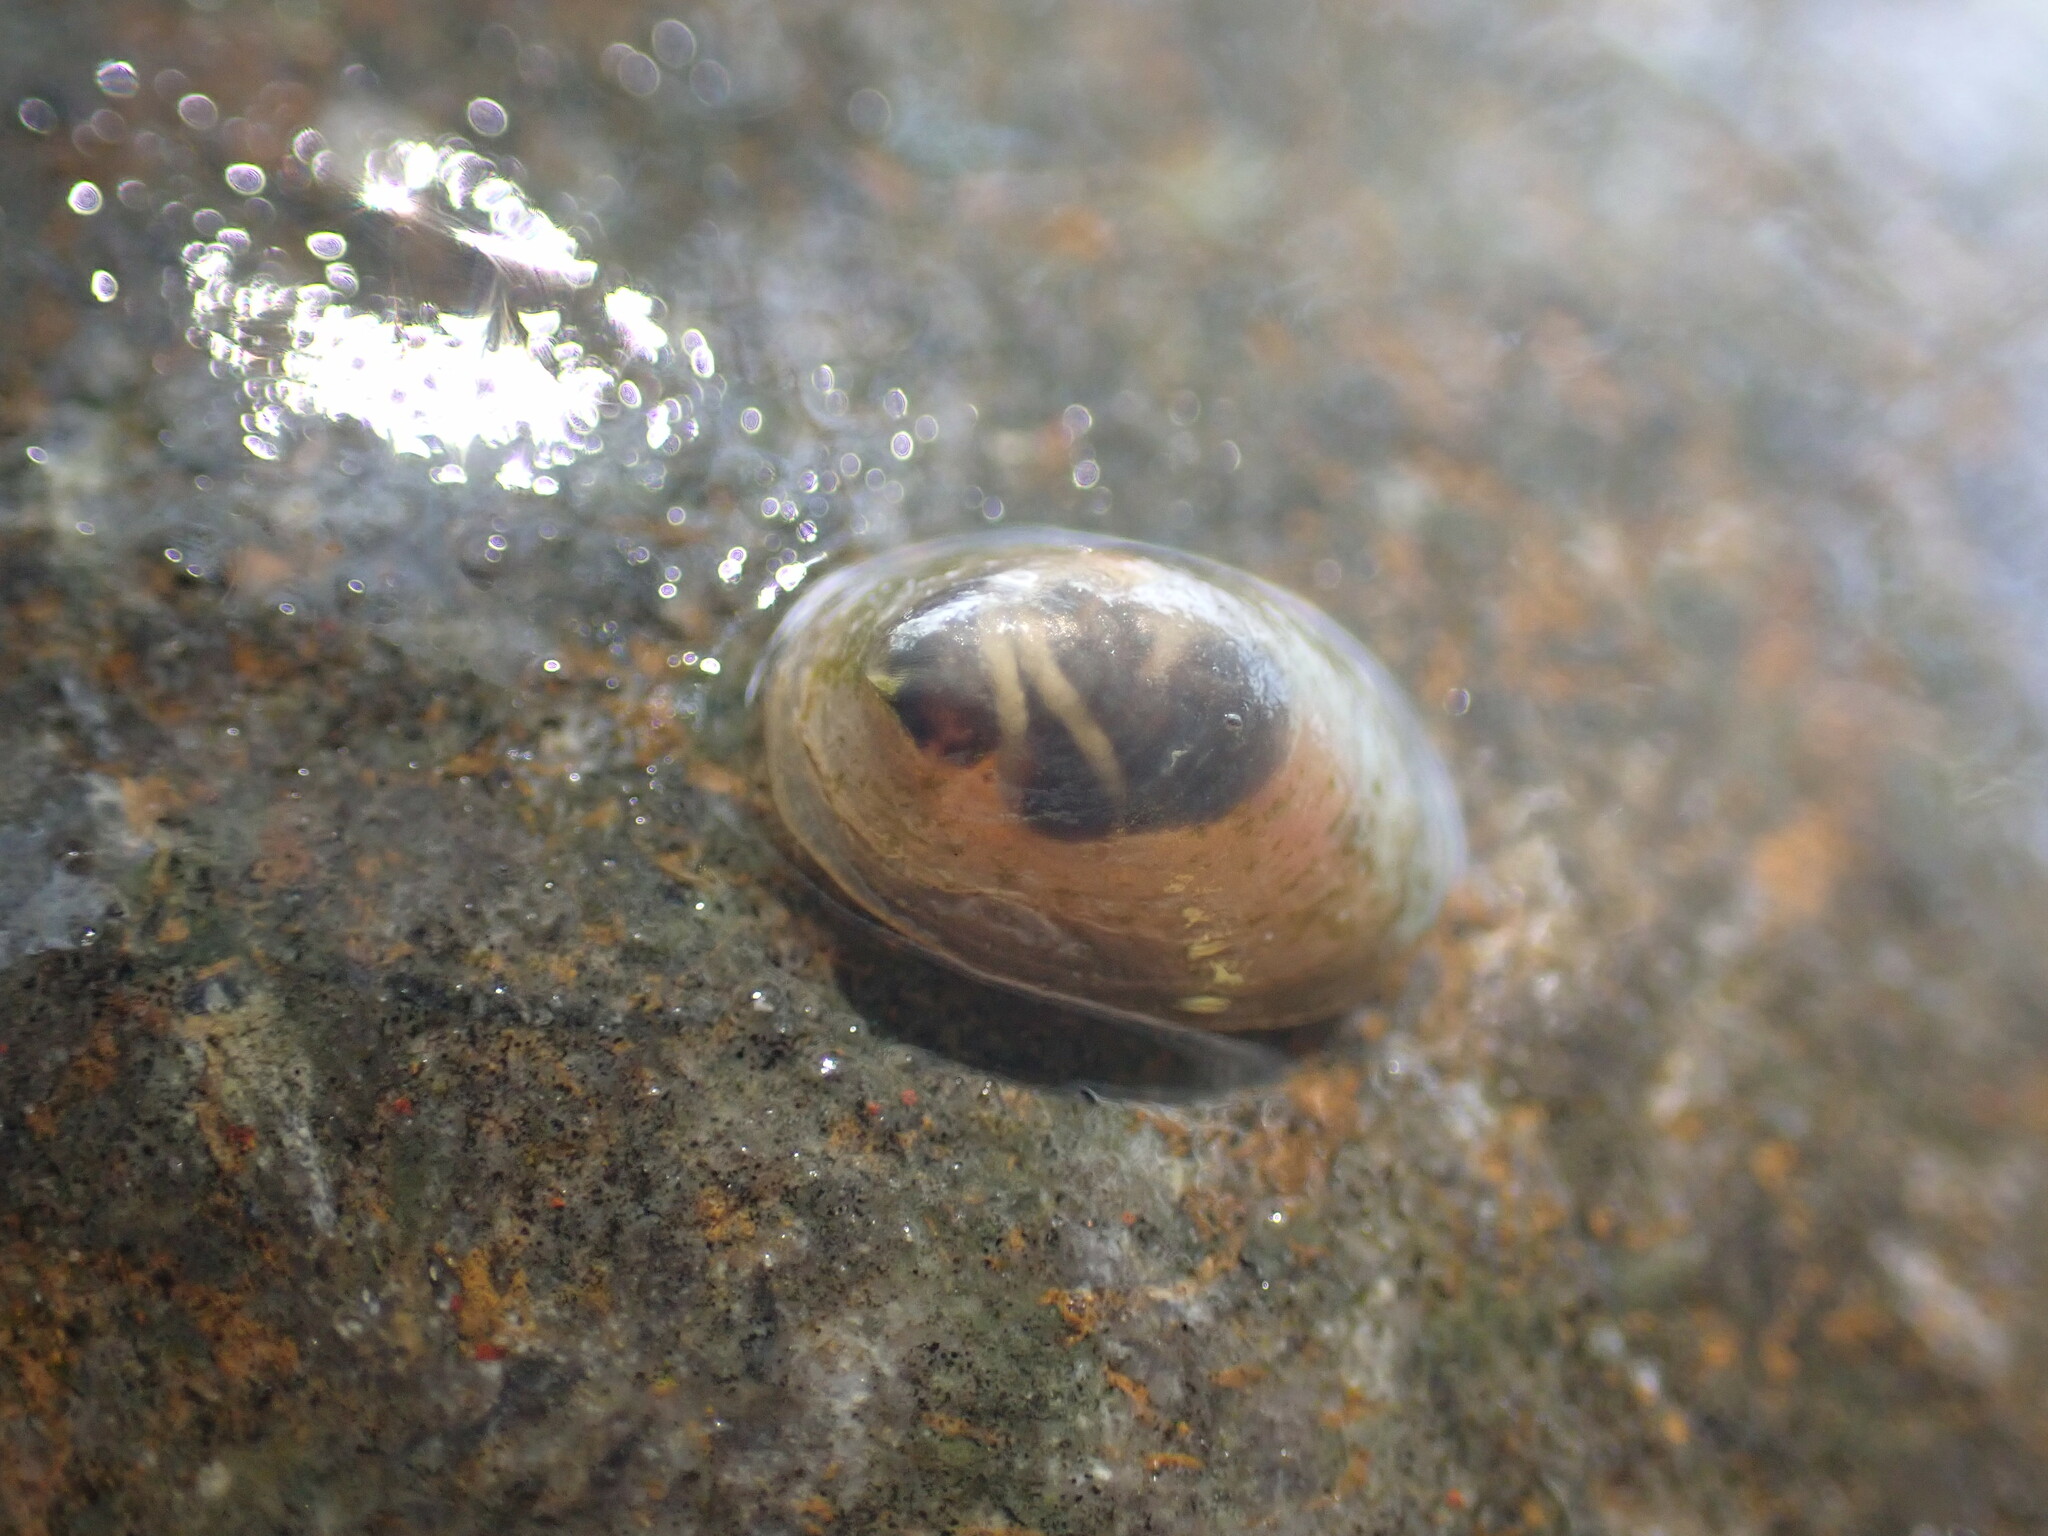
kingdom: Animalia
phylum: Mollusca
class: Gastropoda
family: Planorbidae
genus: Ancylus
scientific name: Ancylus fluviatilis
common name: River limpet
